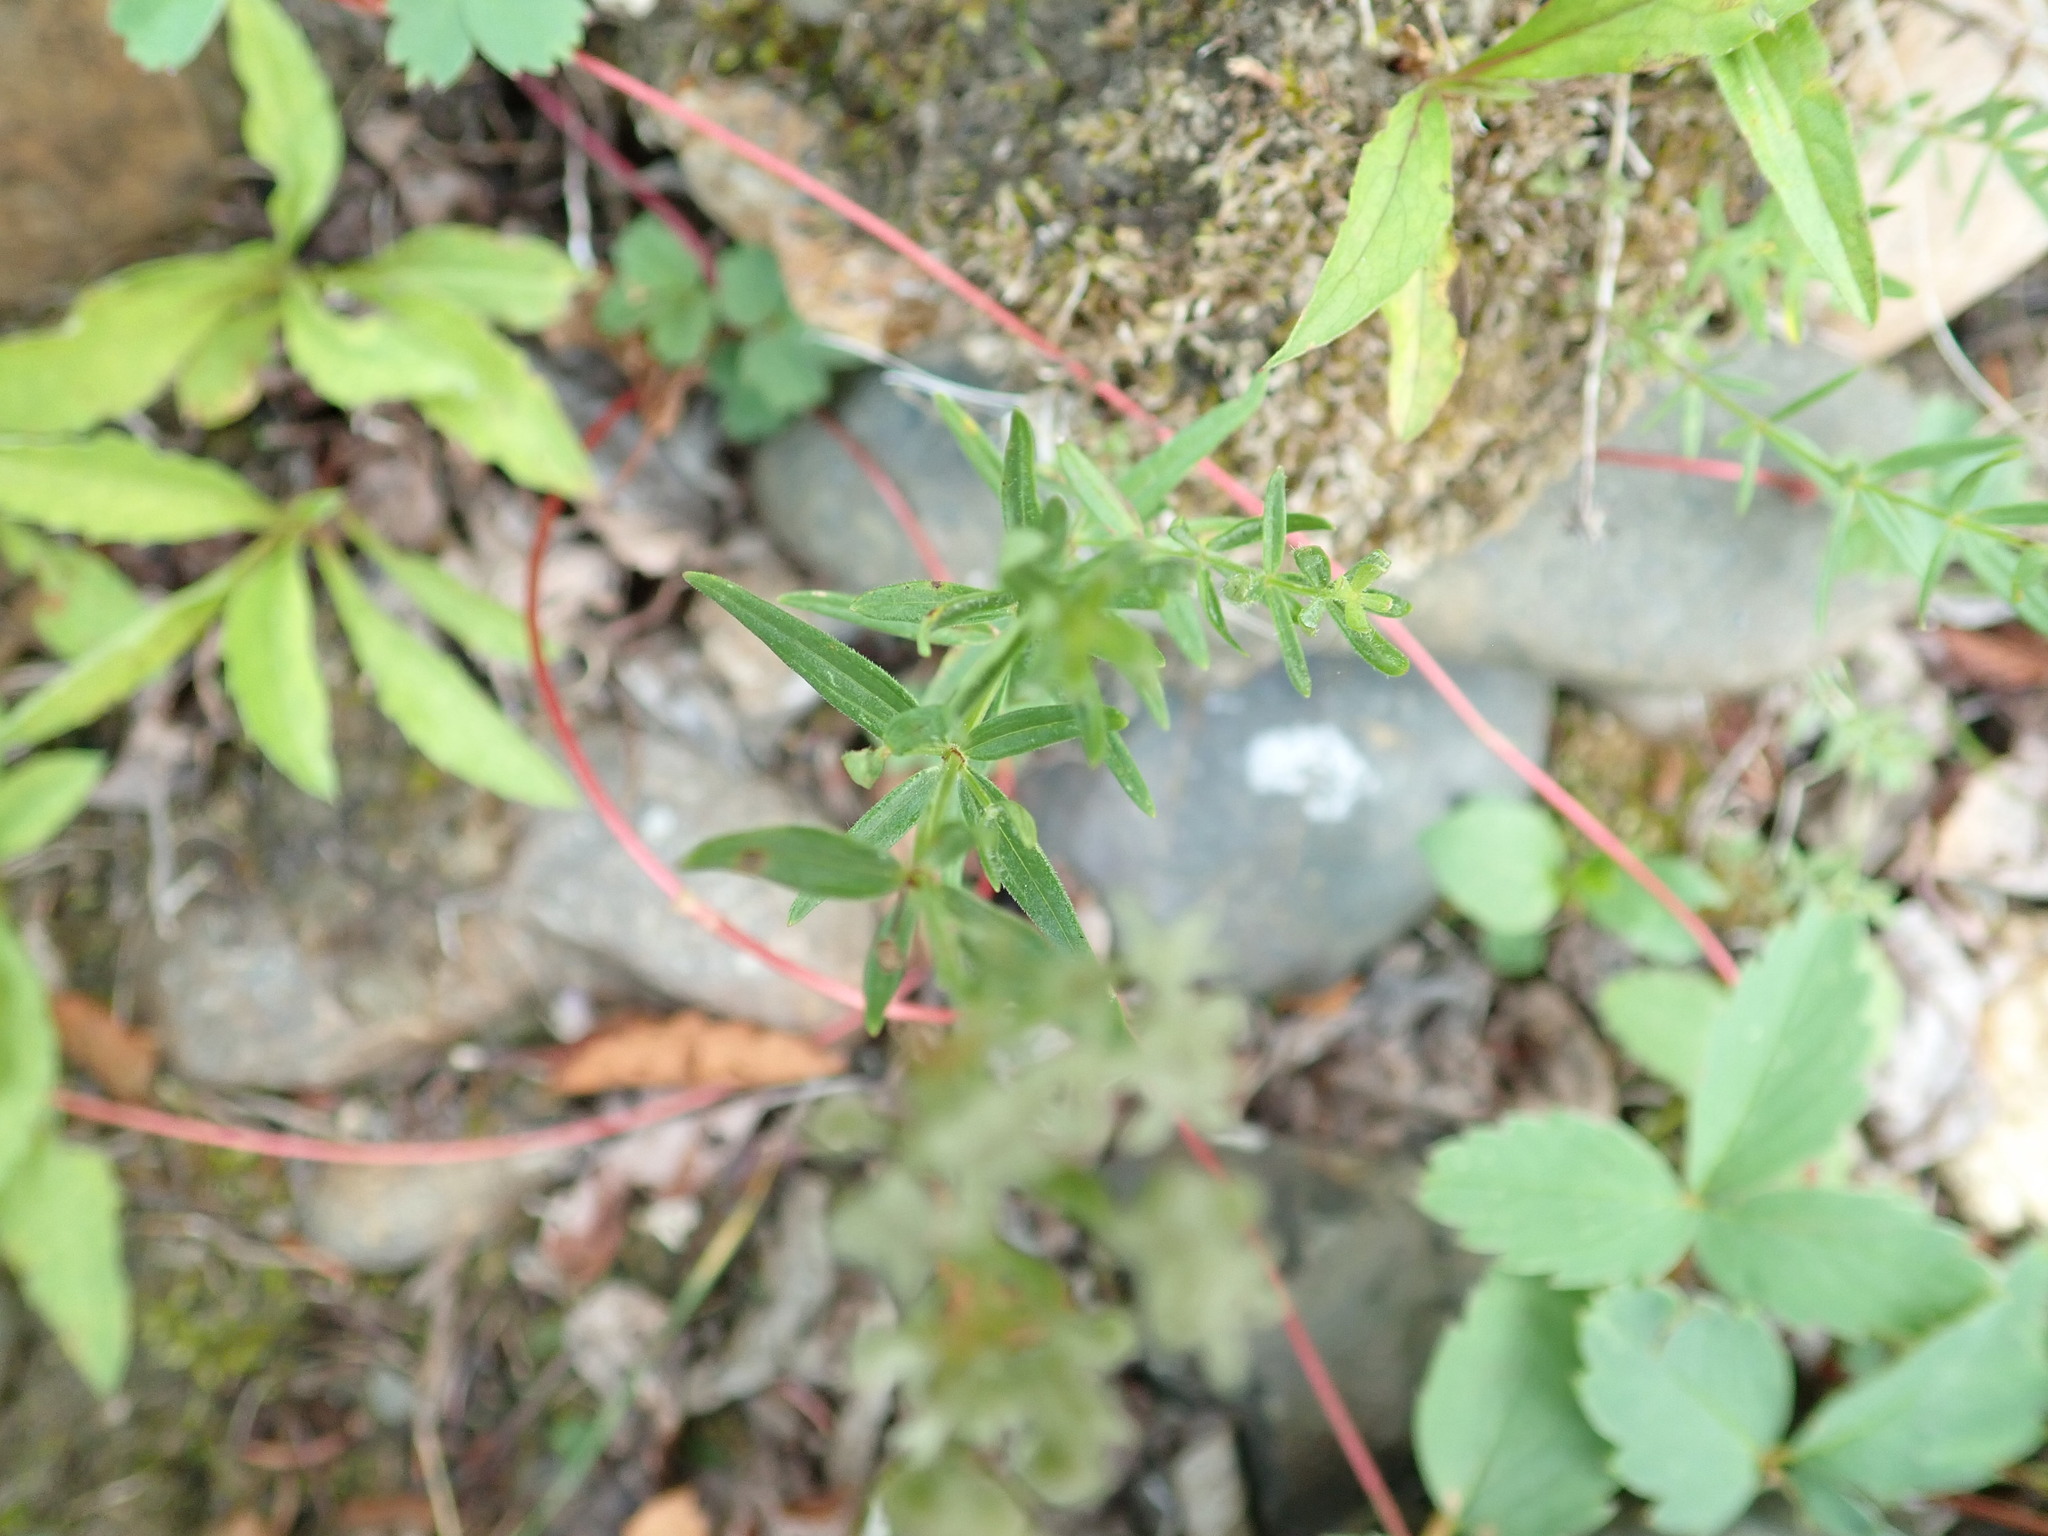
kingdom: Plantae
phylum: Tracheophyta
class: Magnoliopsida
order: Gentianales
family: Rubiaceae
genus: Galium
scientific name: Galium boreale
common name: Northern bedstraw
